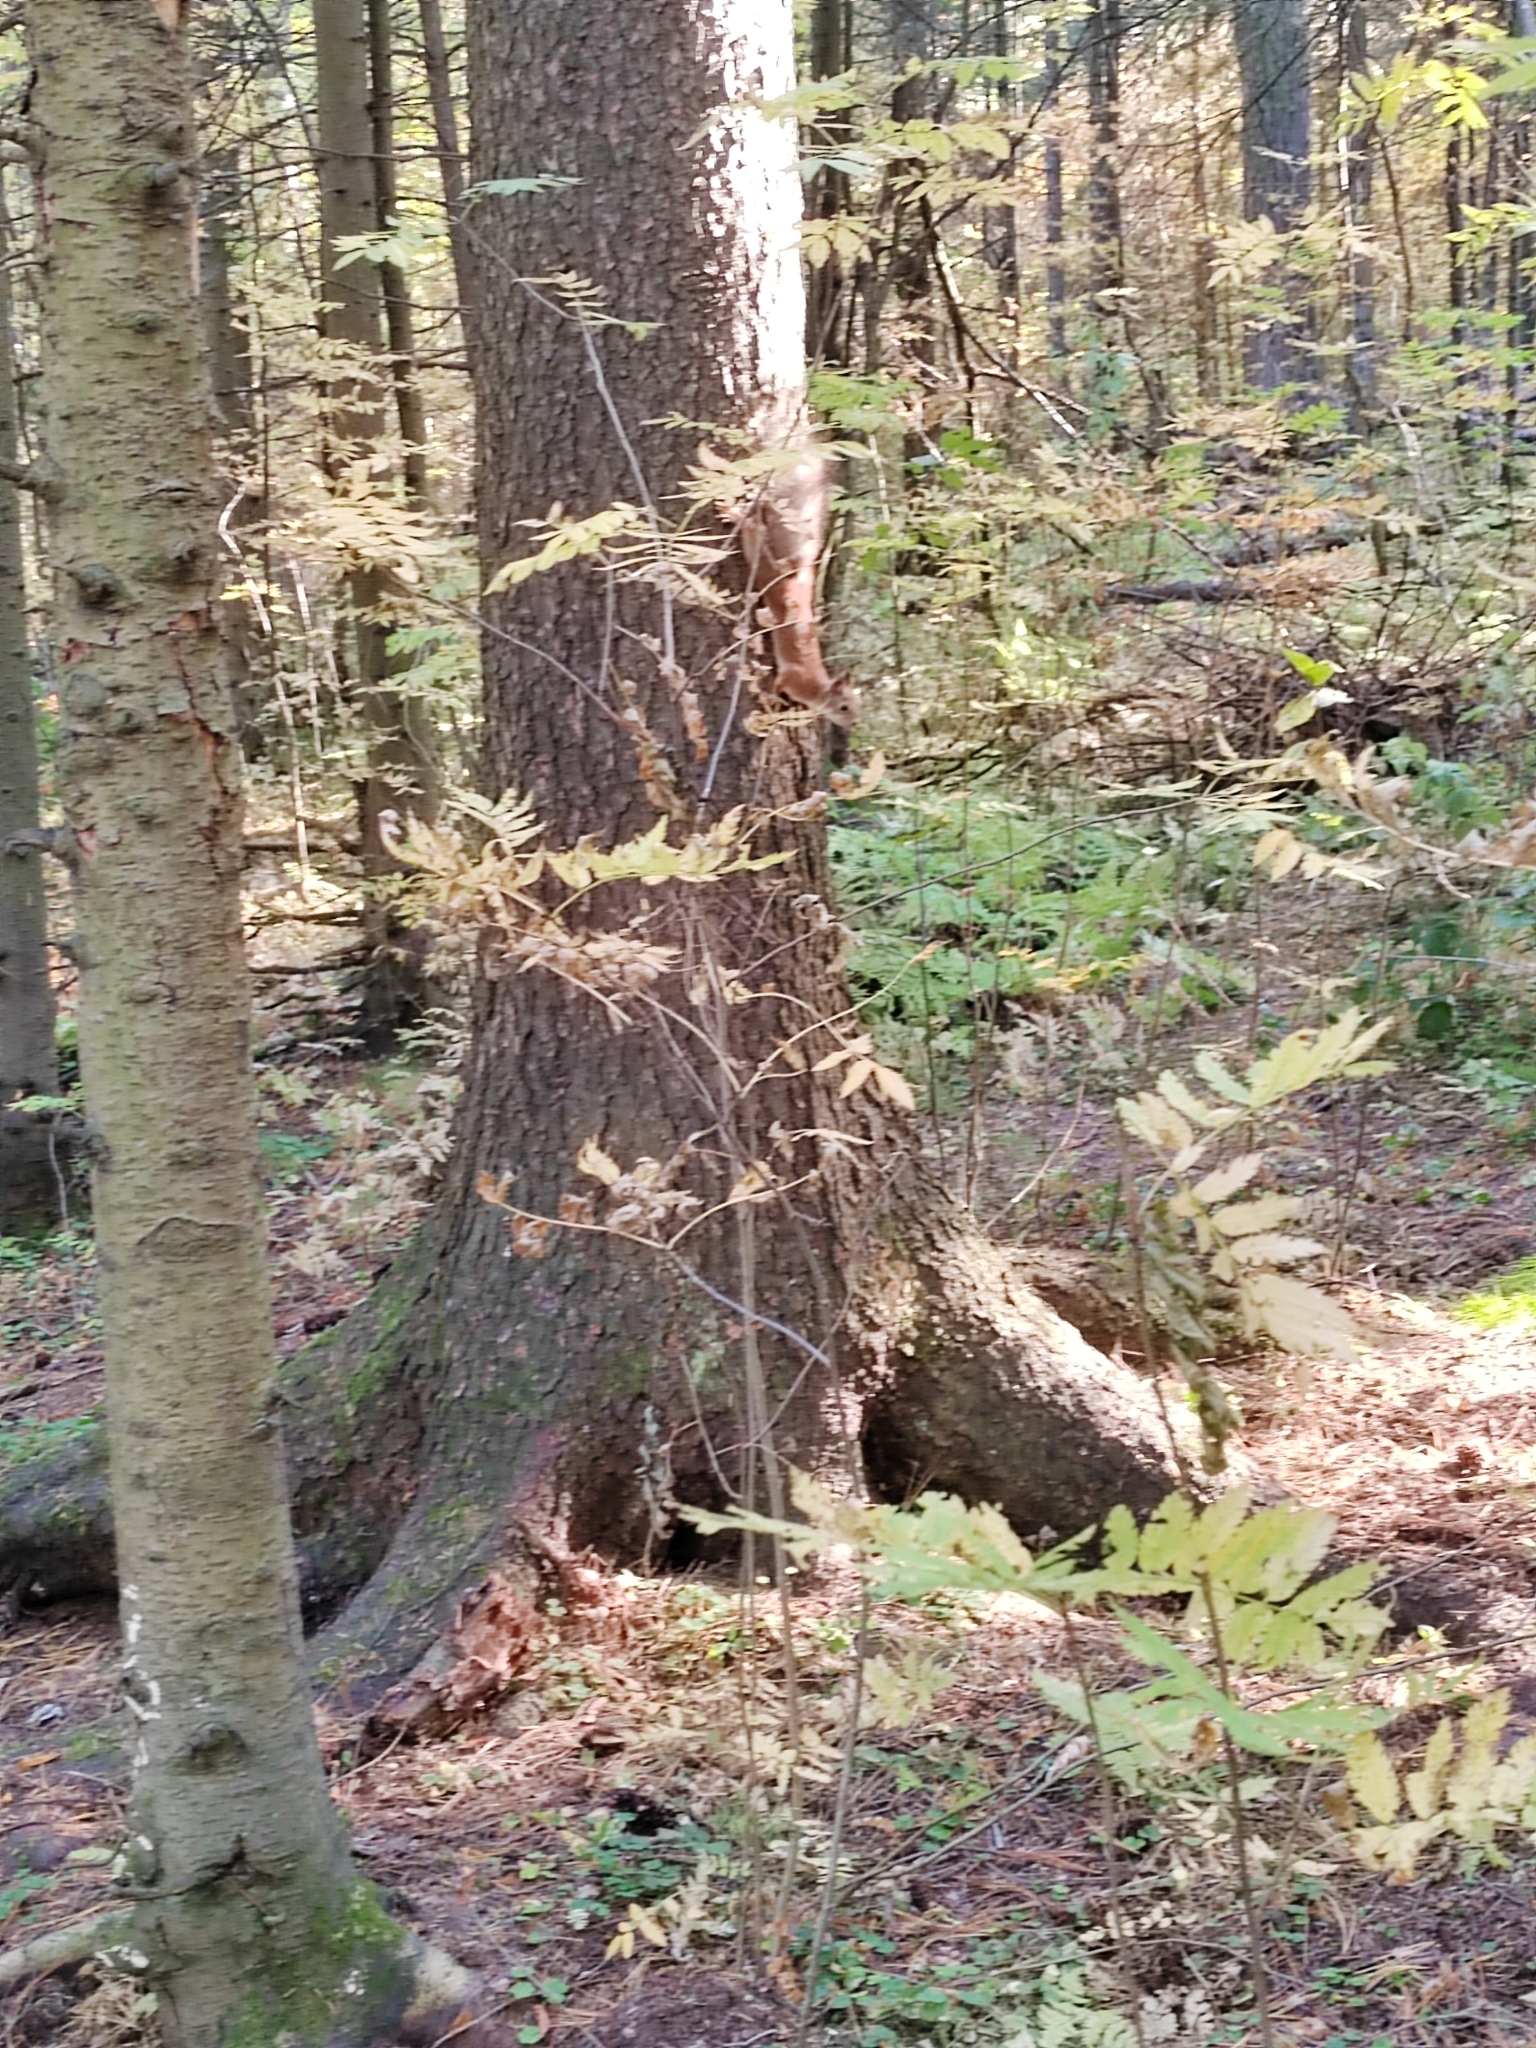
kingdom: Animalia
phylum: Chordata
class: Mammalia
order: Rodentia
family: Sciuridae
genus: Sciurus
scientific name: Sciurus vulgaris
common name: Eurasian red squirrel
